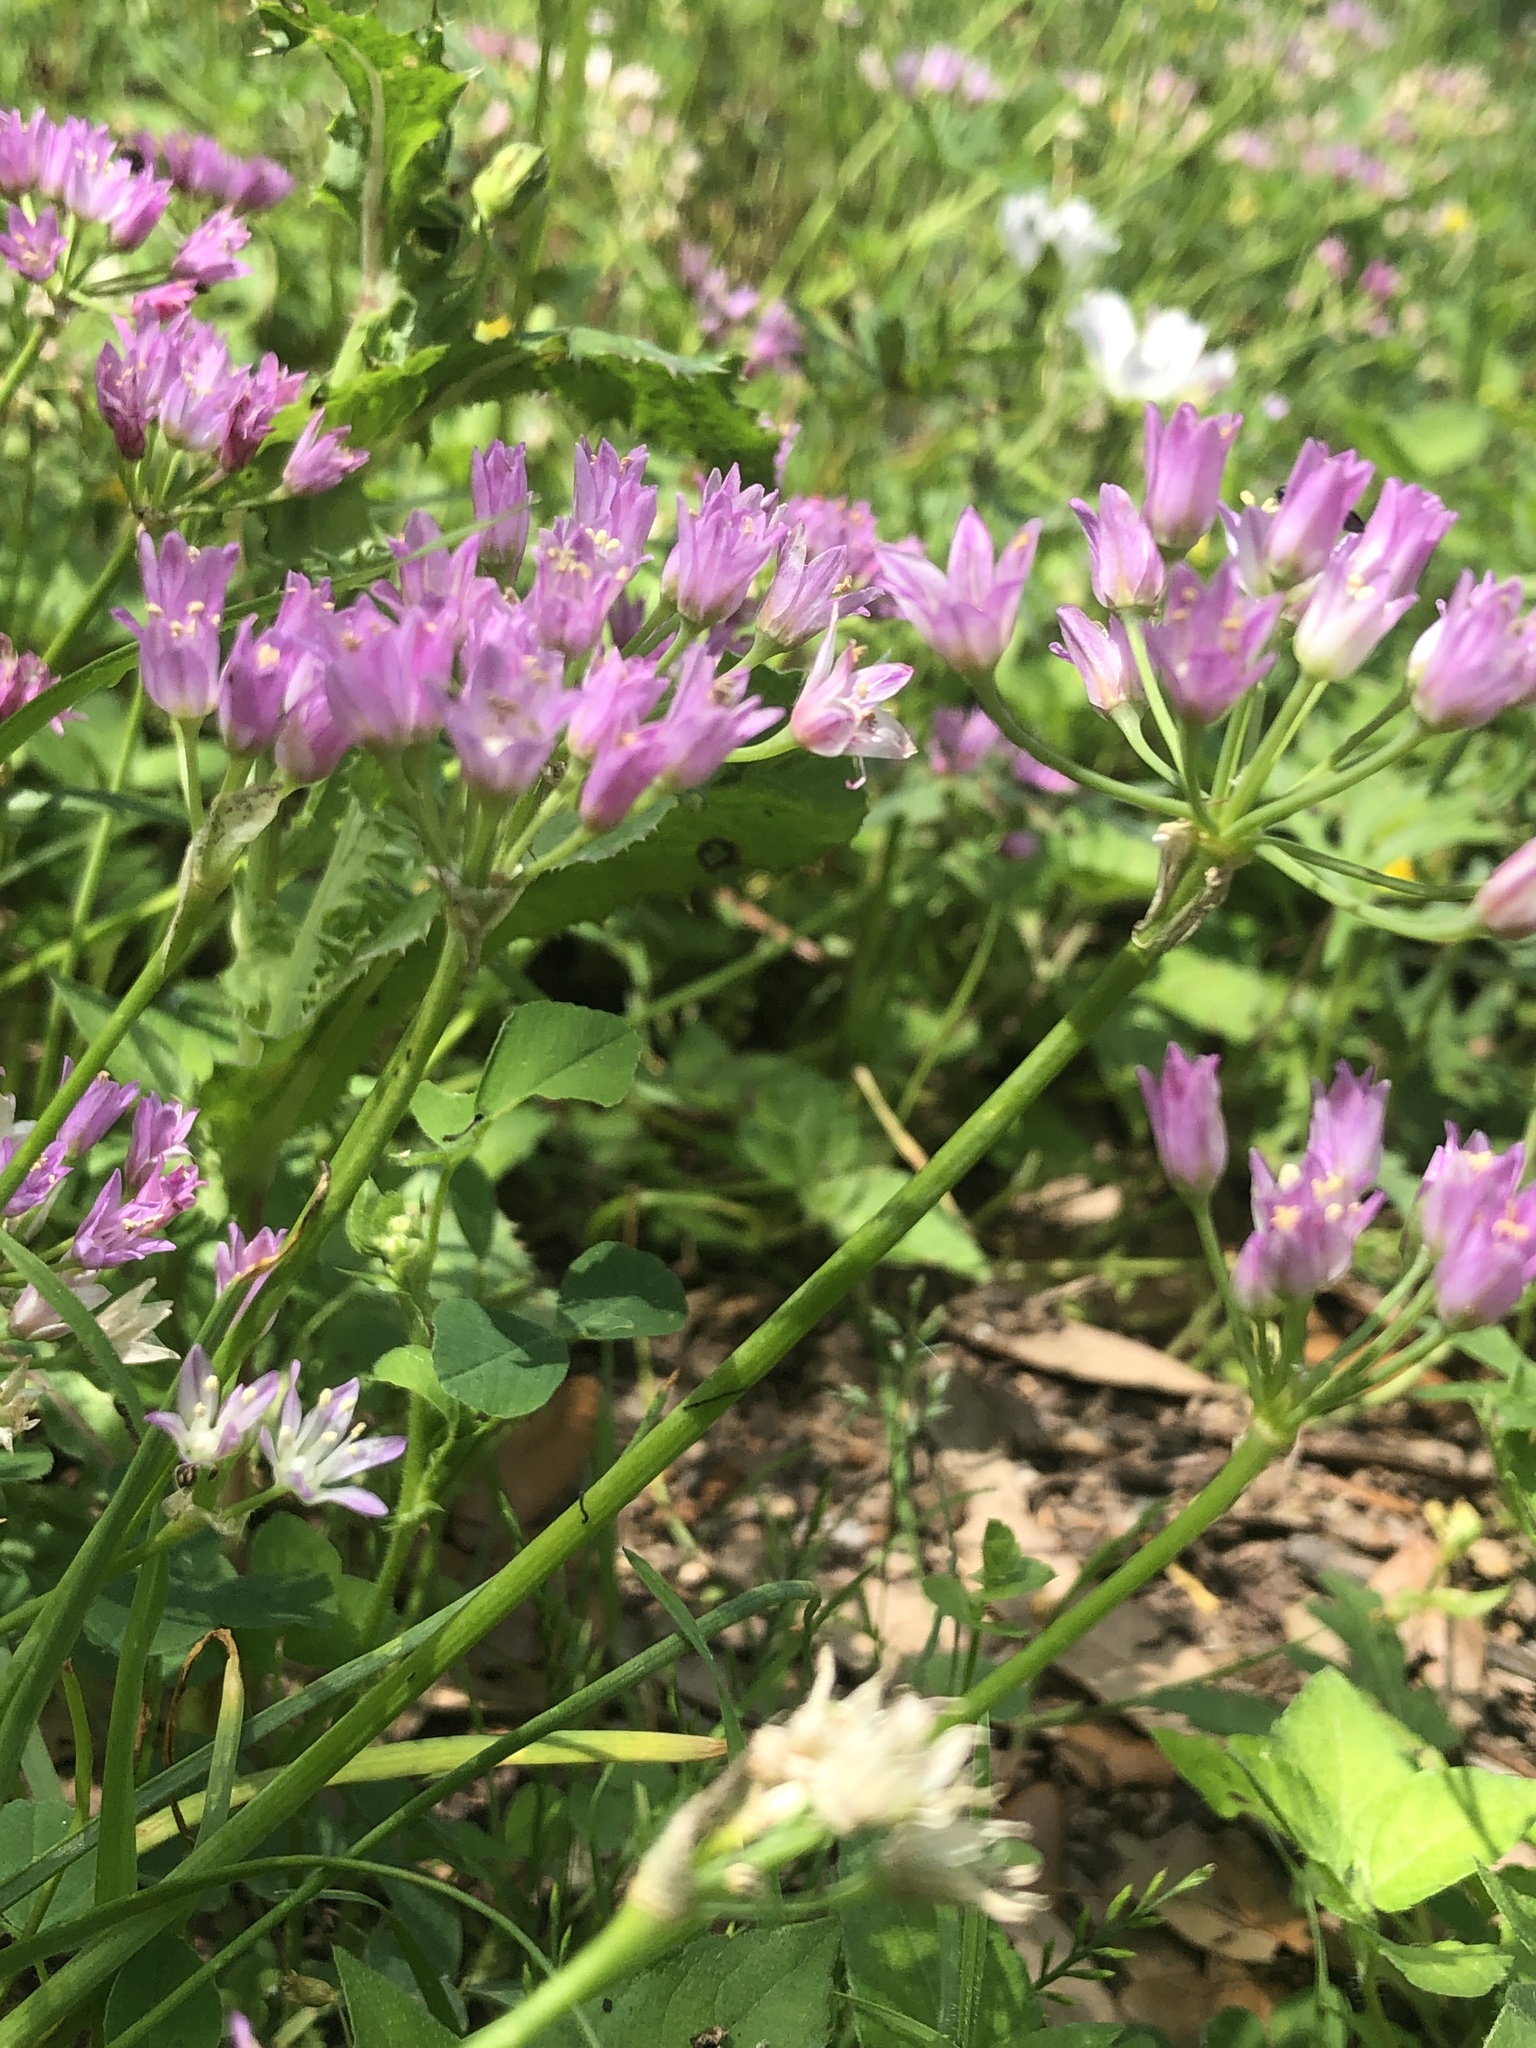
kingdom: Plantae
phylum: Tracheophyta
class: Liliopsida
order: Asparagales
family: Amaryllidaceae
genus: Allium
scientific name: Allium drummondii
